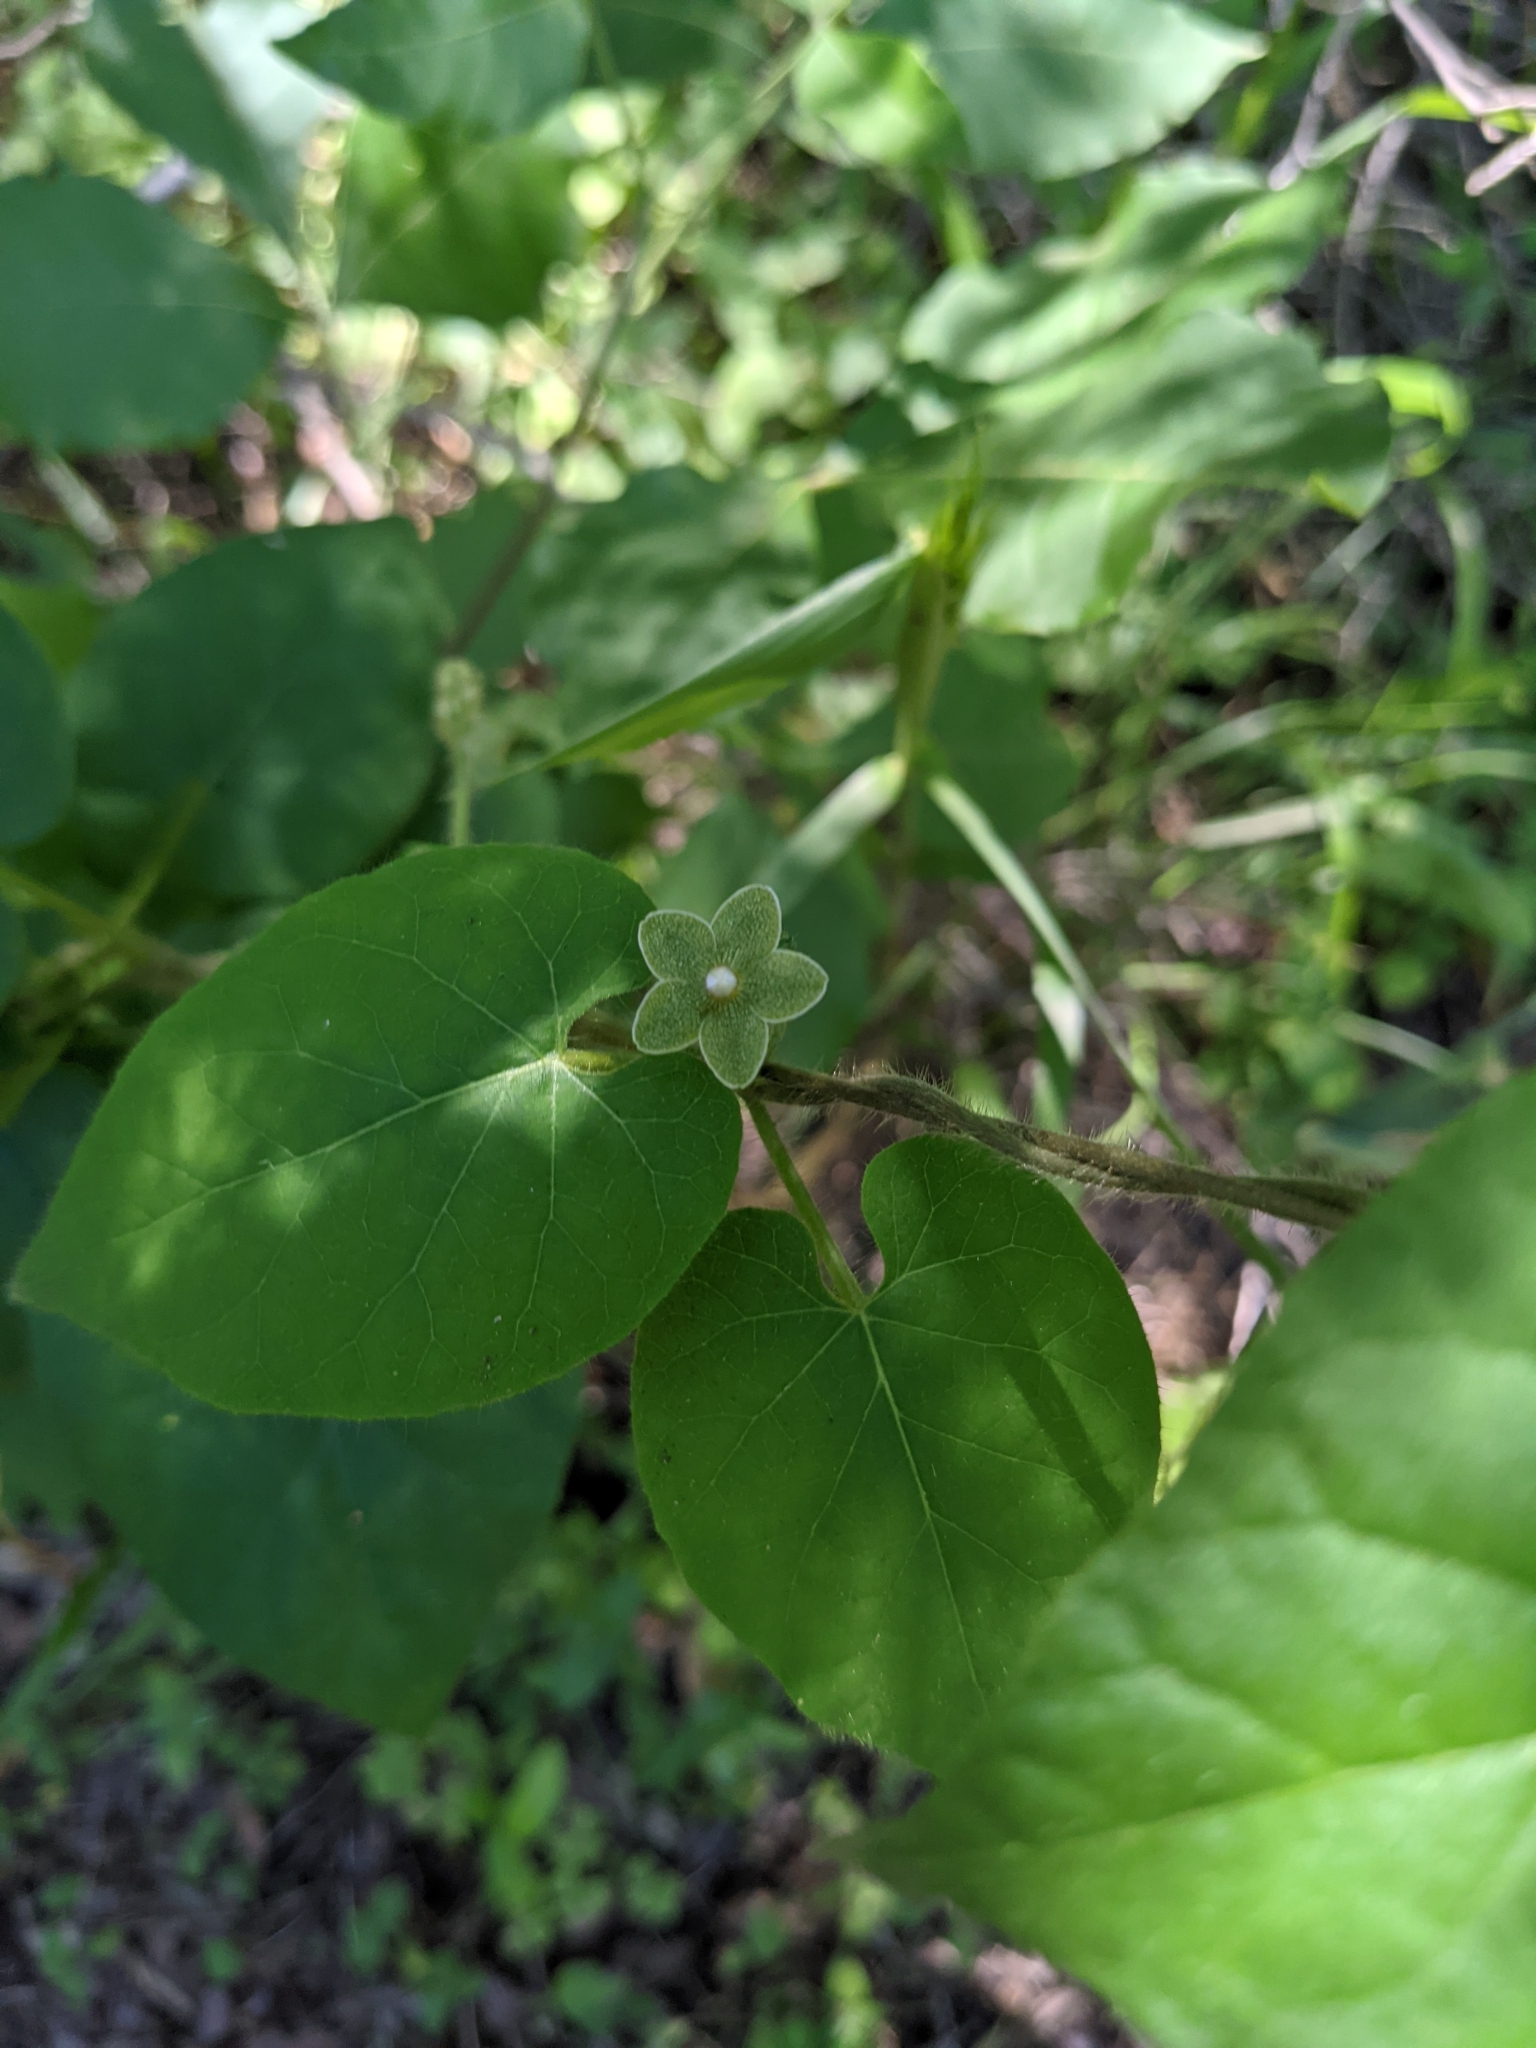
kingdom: Plantae
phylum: Tracheophyta
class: Magnoliopsida
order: Gentianales
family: Apocynaceae
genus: Dictyanthus
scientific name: Dictyanthus reticulatus
